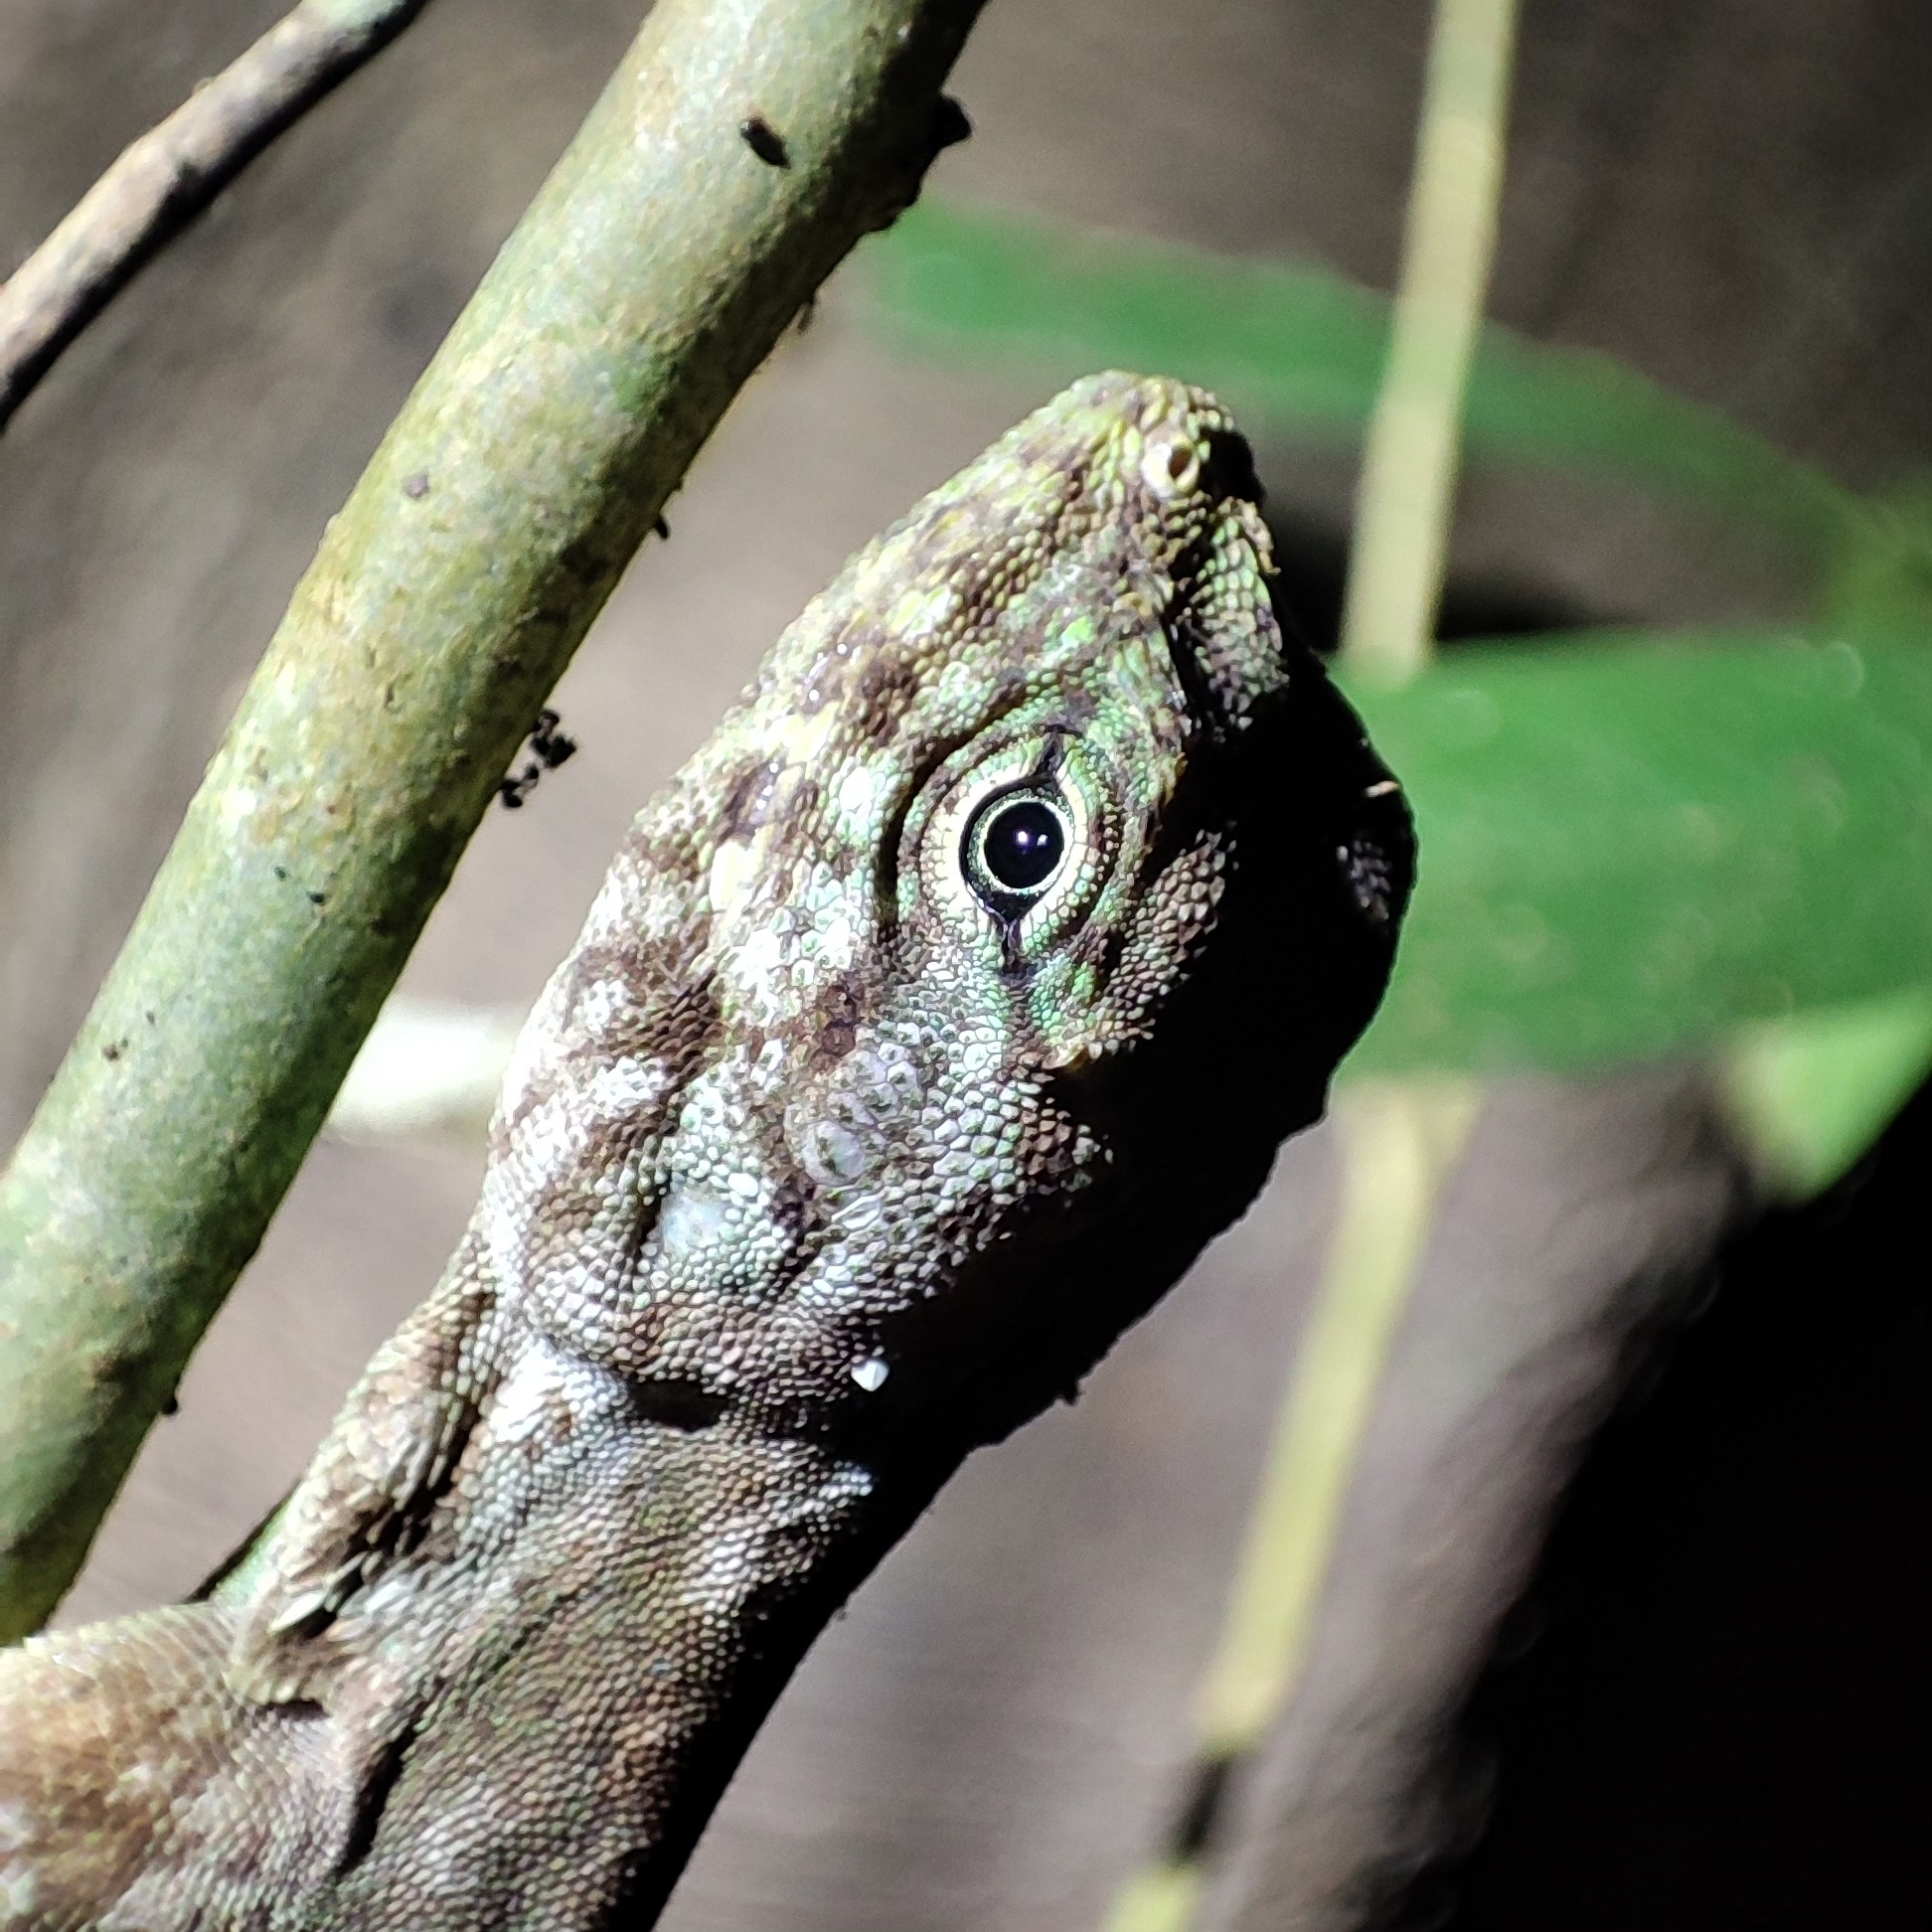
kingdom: Animalia
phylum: Chordata
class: Squamata
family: Agamidae
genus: Draco
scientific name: Draco indochinensis
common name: Indochinese flying lizard
